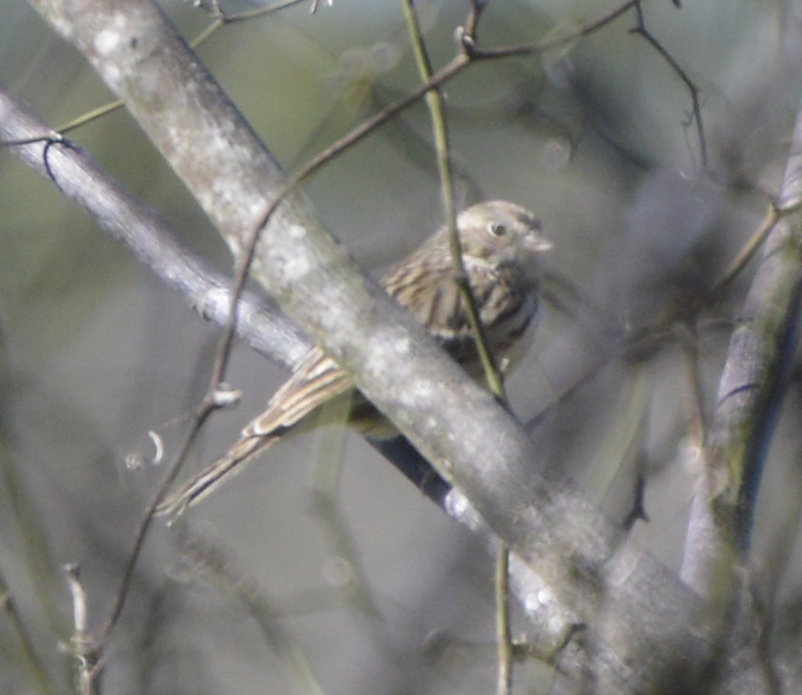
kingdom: Animalia
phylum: Chordata
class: Aves
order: Passeriformes
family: Passerellidae
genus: Melospiza
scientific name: Melospiza melodia
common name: Song sparrow
